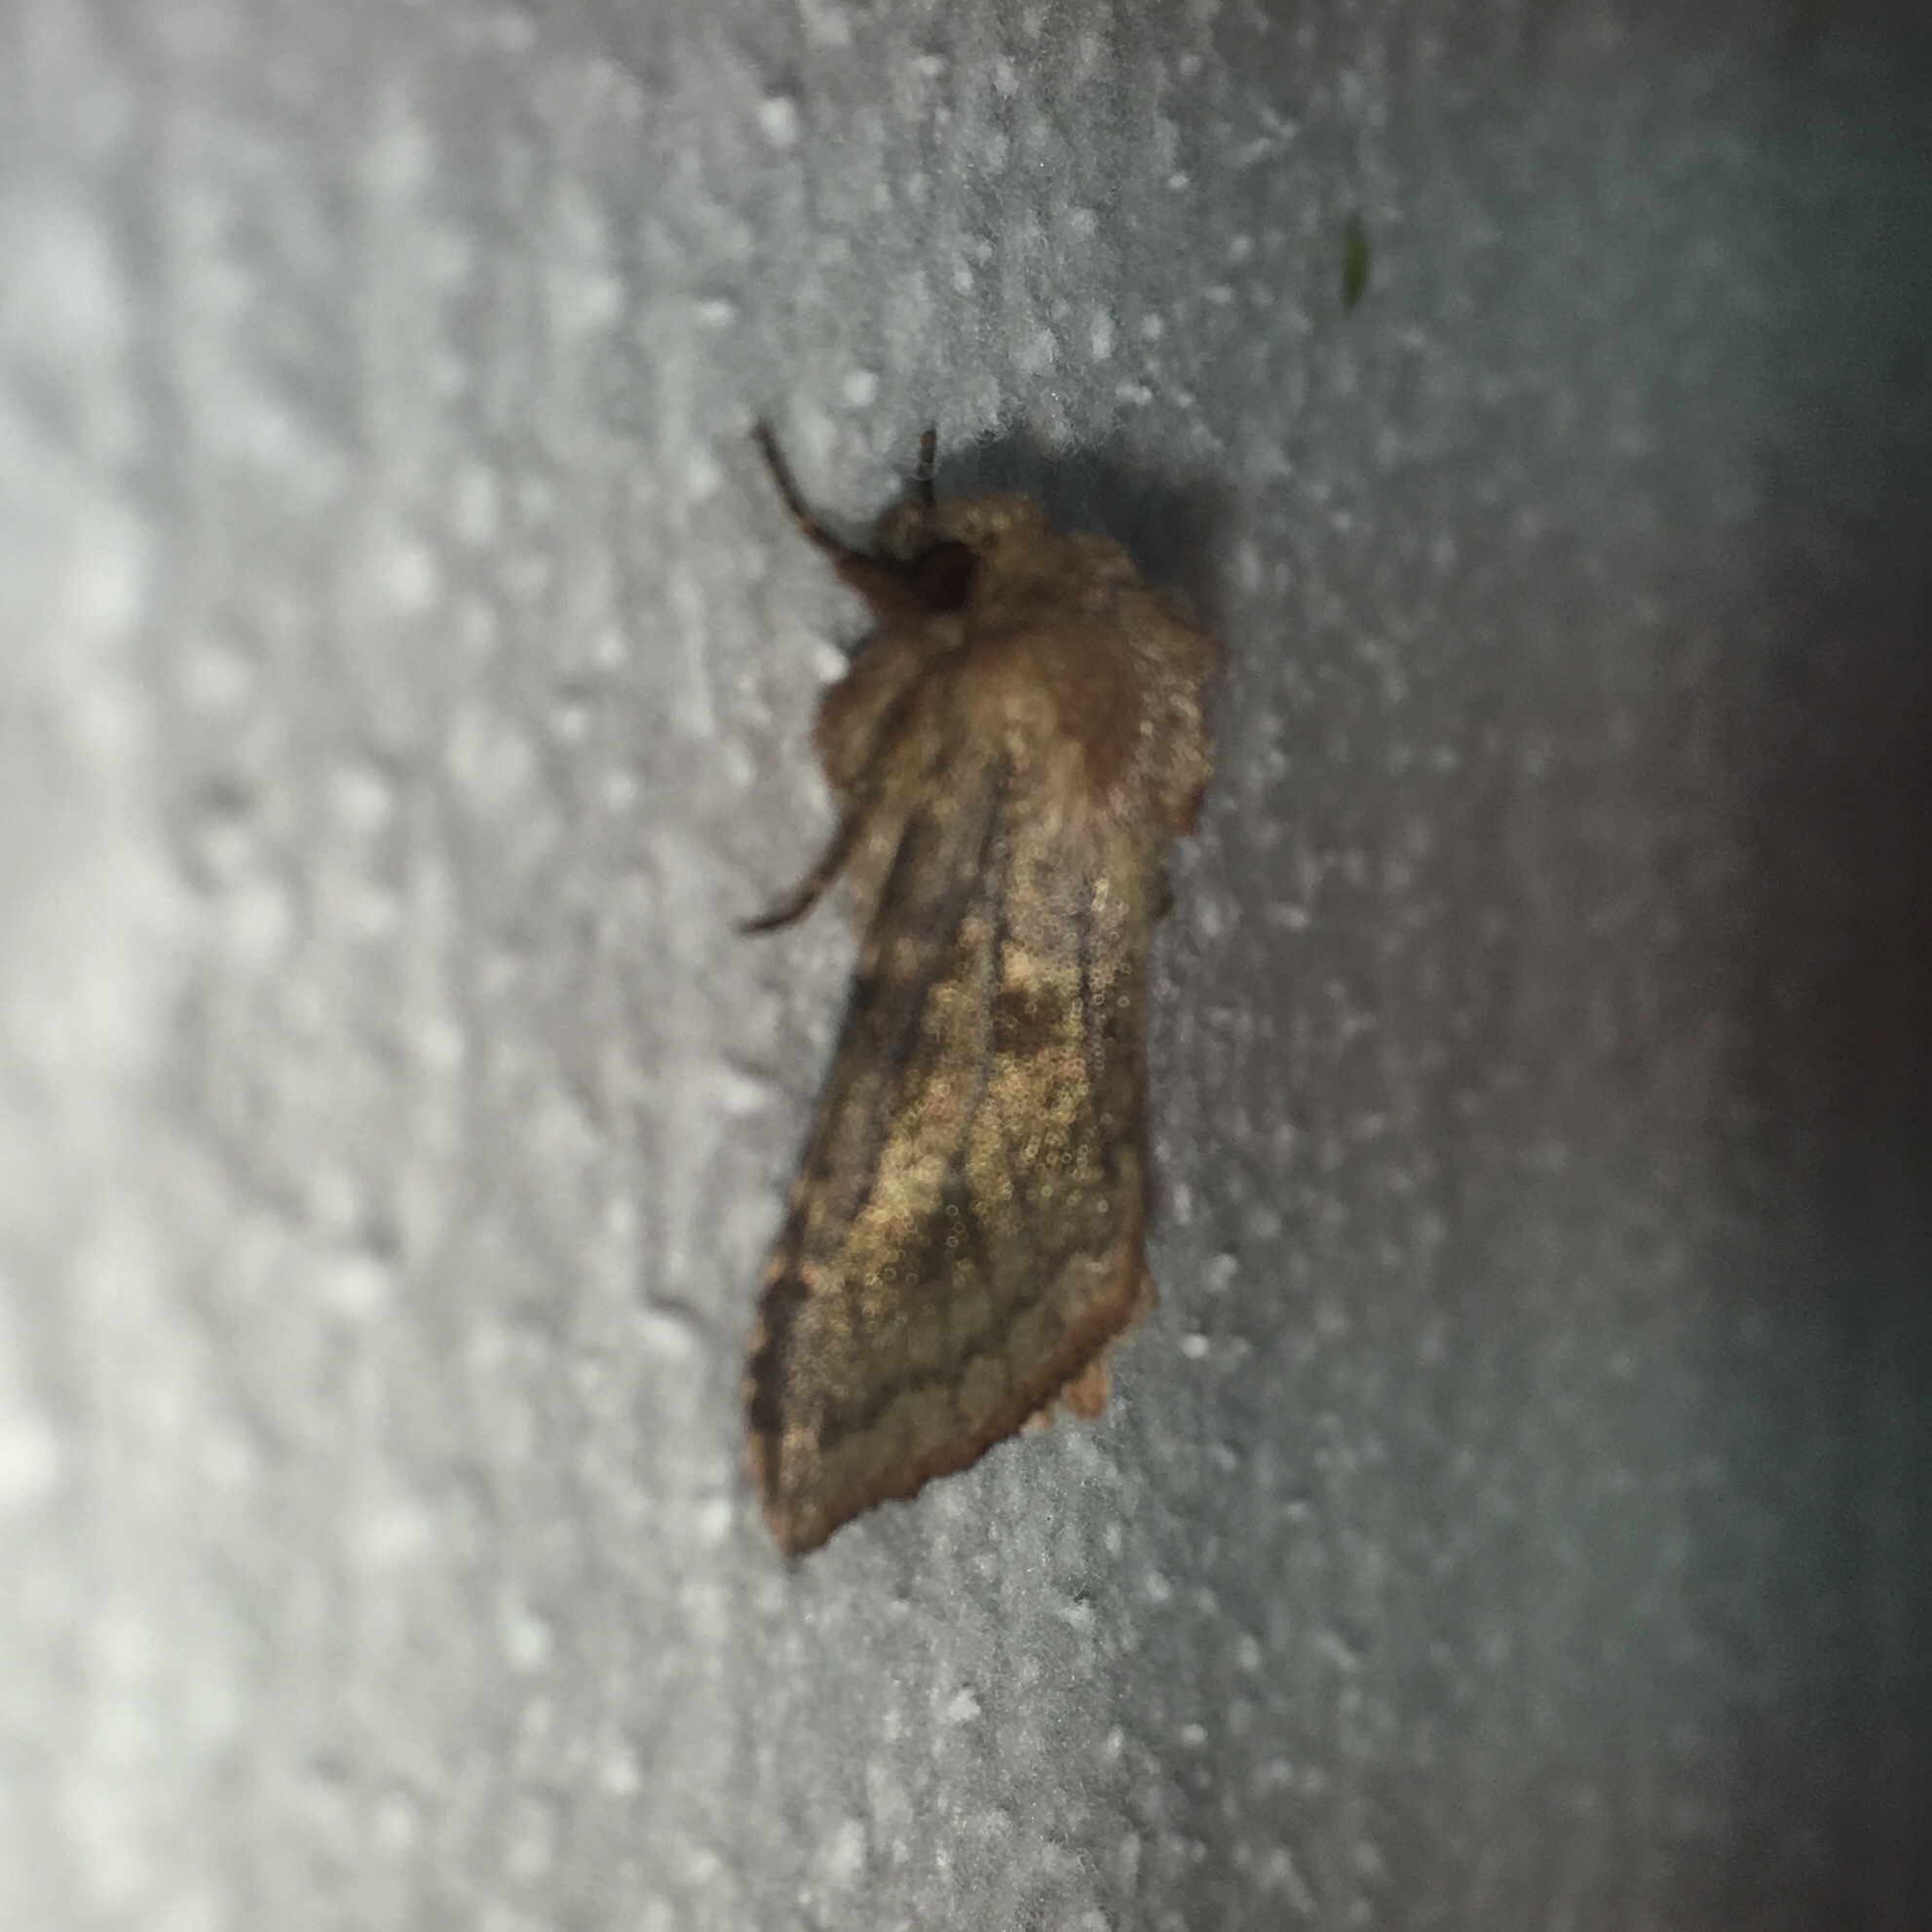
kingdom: Animalia
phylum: Arthropoda
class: Insecta
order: Lepidoptera
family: Noctuidae
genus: Nephelodes
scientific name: Nephelodes minians
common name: Bronzed cutworm
